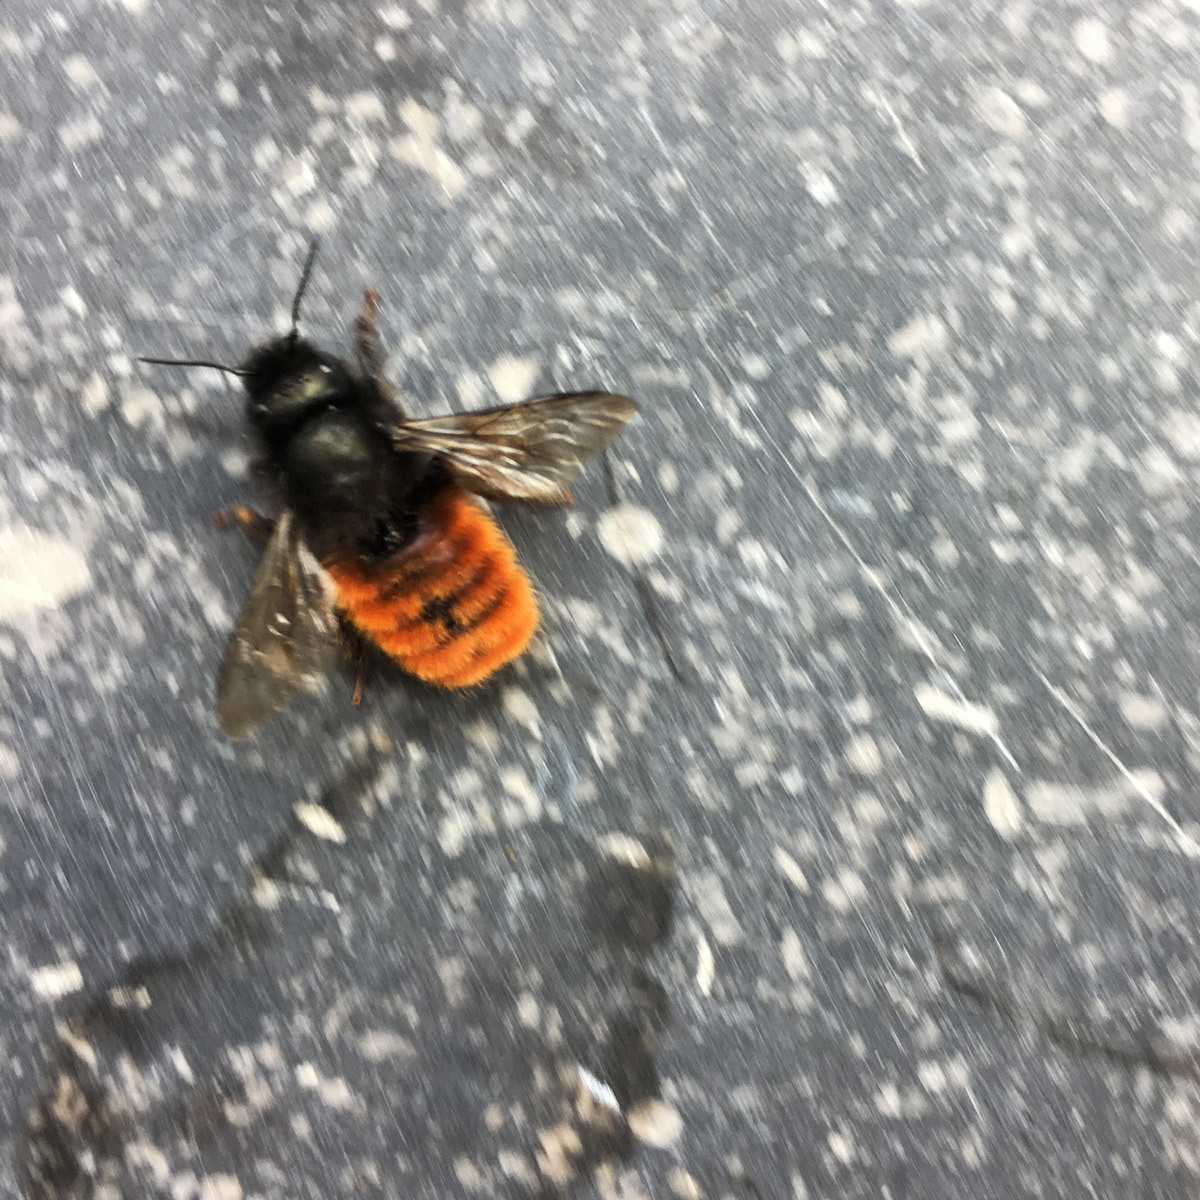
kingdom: Animalia
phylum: Arthropoda
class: Insecta
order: Hymenoptera
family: Megachilidae
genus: Osmia
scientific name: Osmia cornuta
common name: Mason bee
